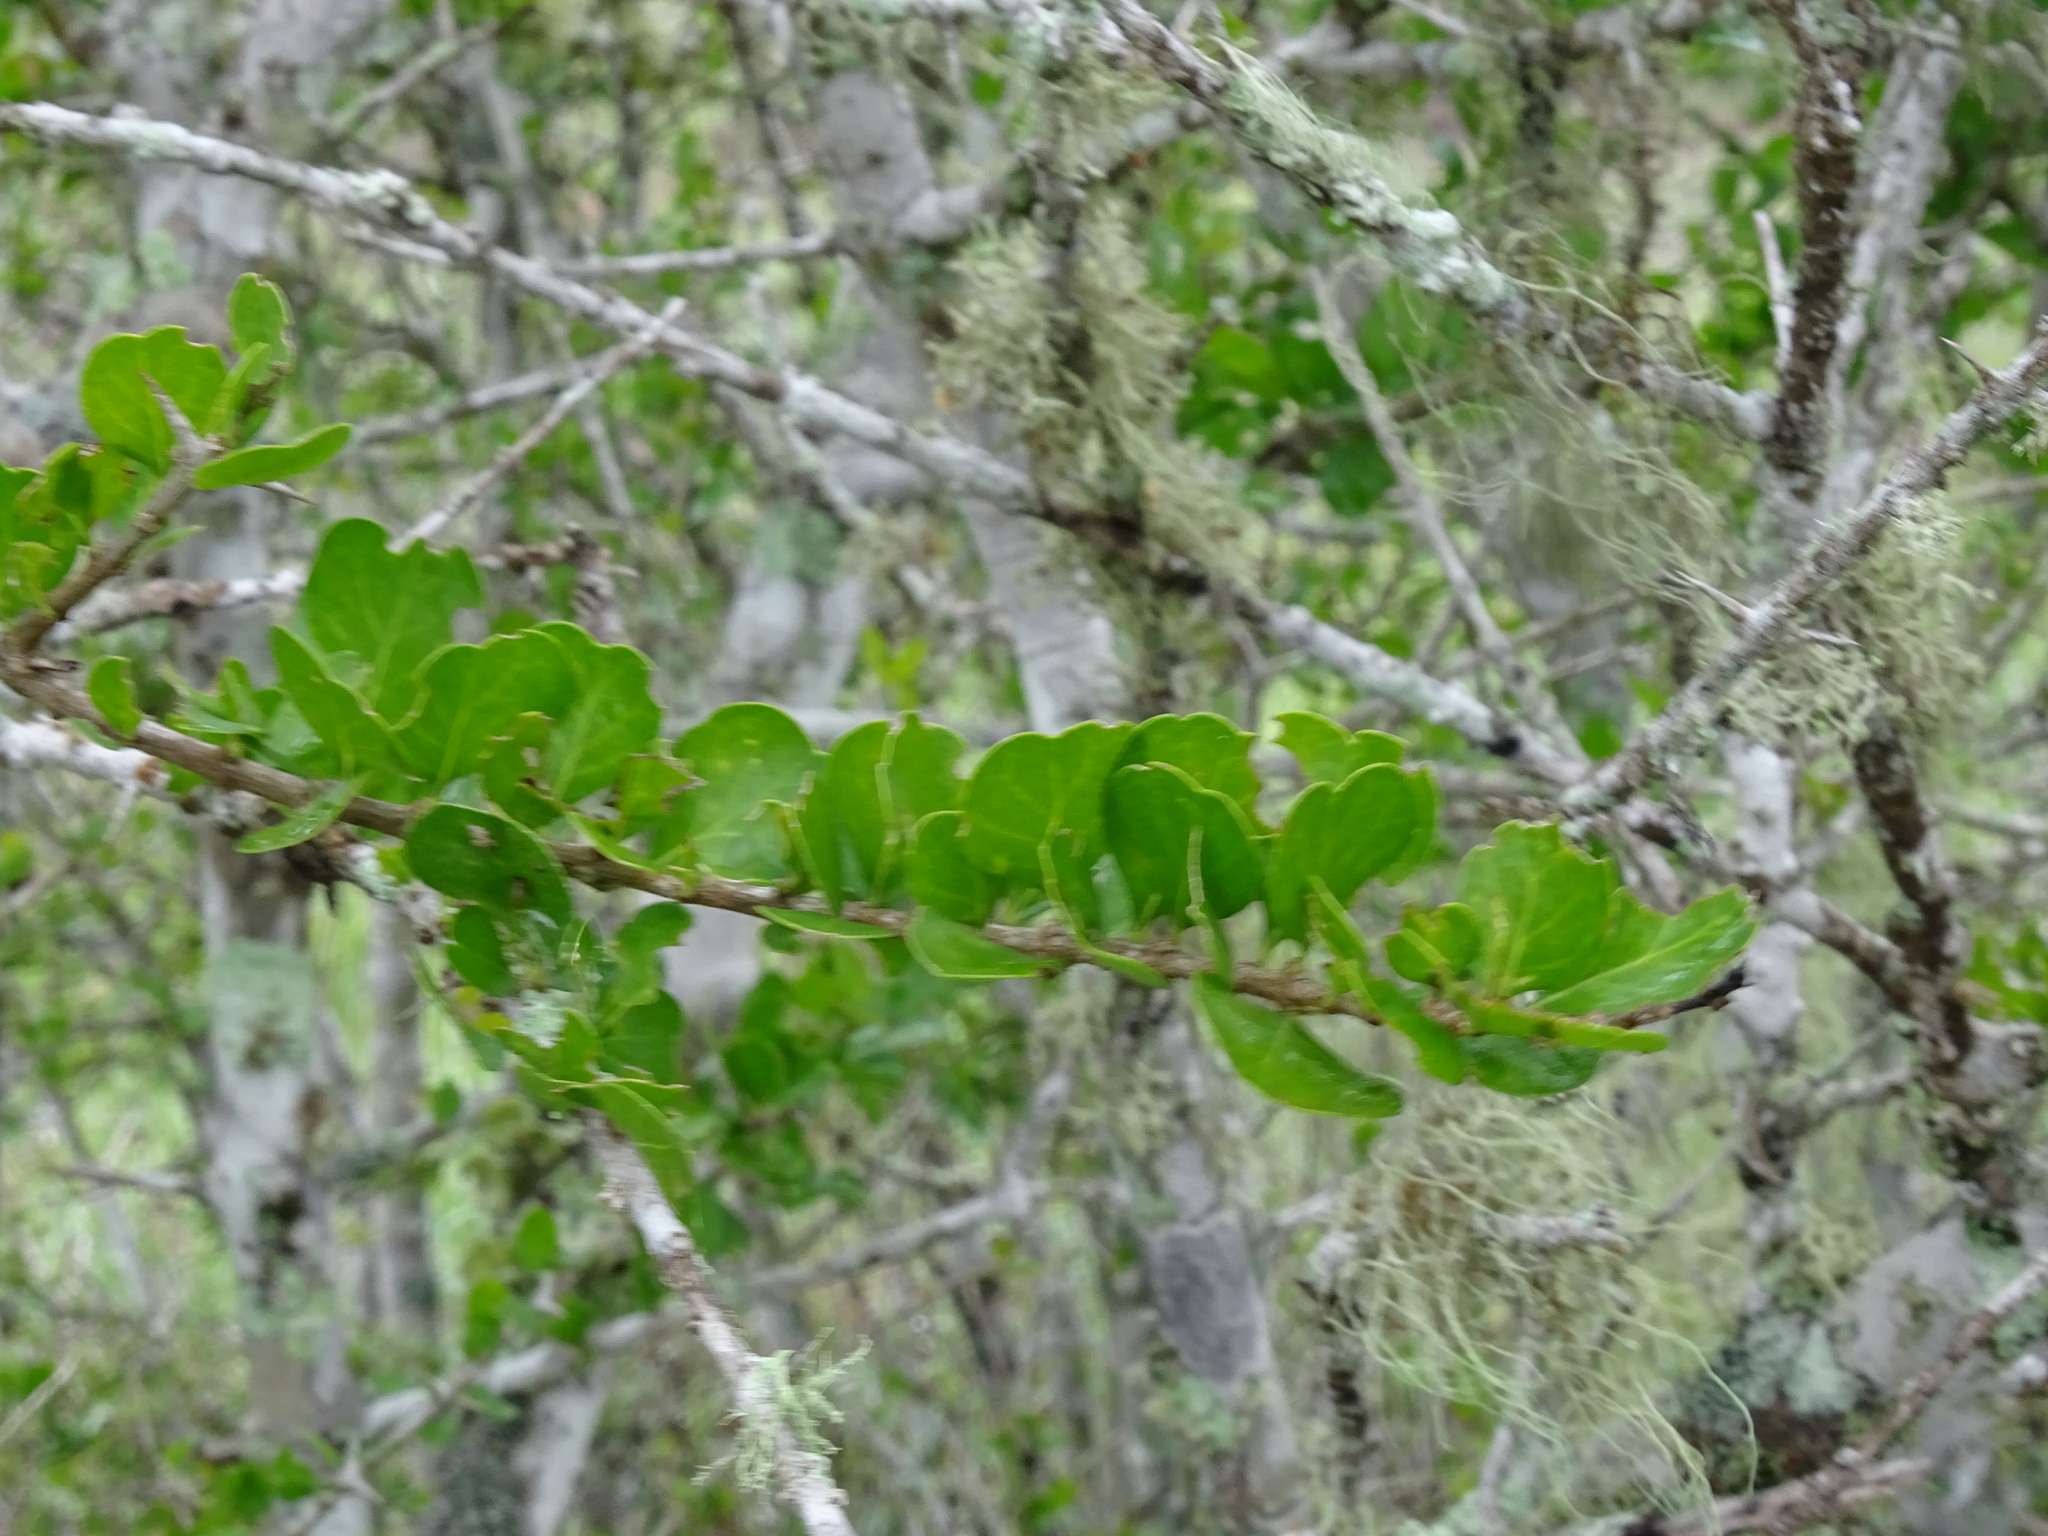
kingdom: Plantae
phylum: Tracheophyta
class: Magnoliopsida
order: Gentianales
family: Rubiaceae
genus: Randia
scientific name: Randia obcordata
